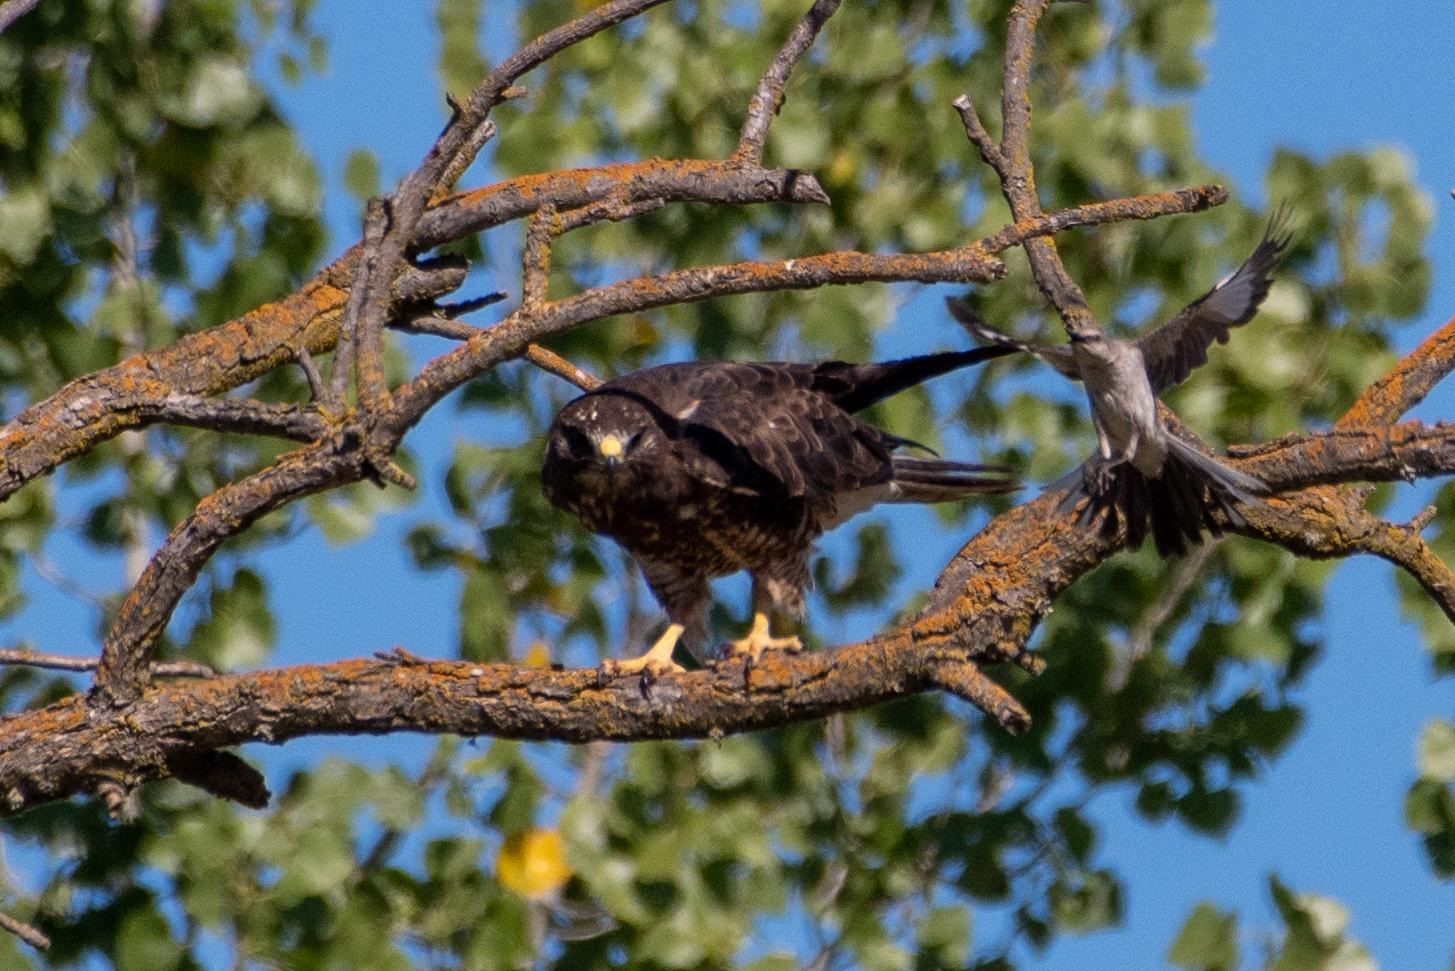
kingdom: Animalia
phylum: Chordata
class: Aves
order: Accipitriformes
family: Accipitridae
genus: Buteo
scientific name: Buteo swainsoni
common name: Swainson's hawk
